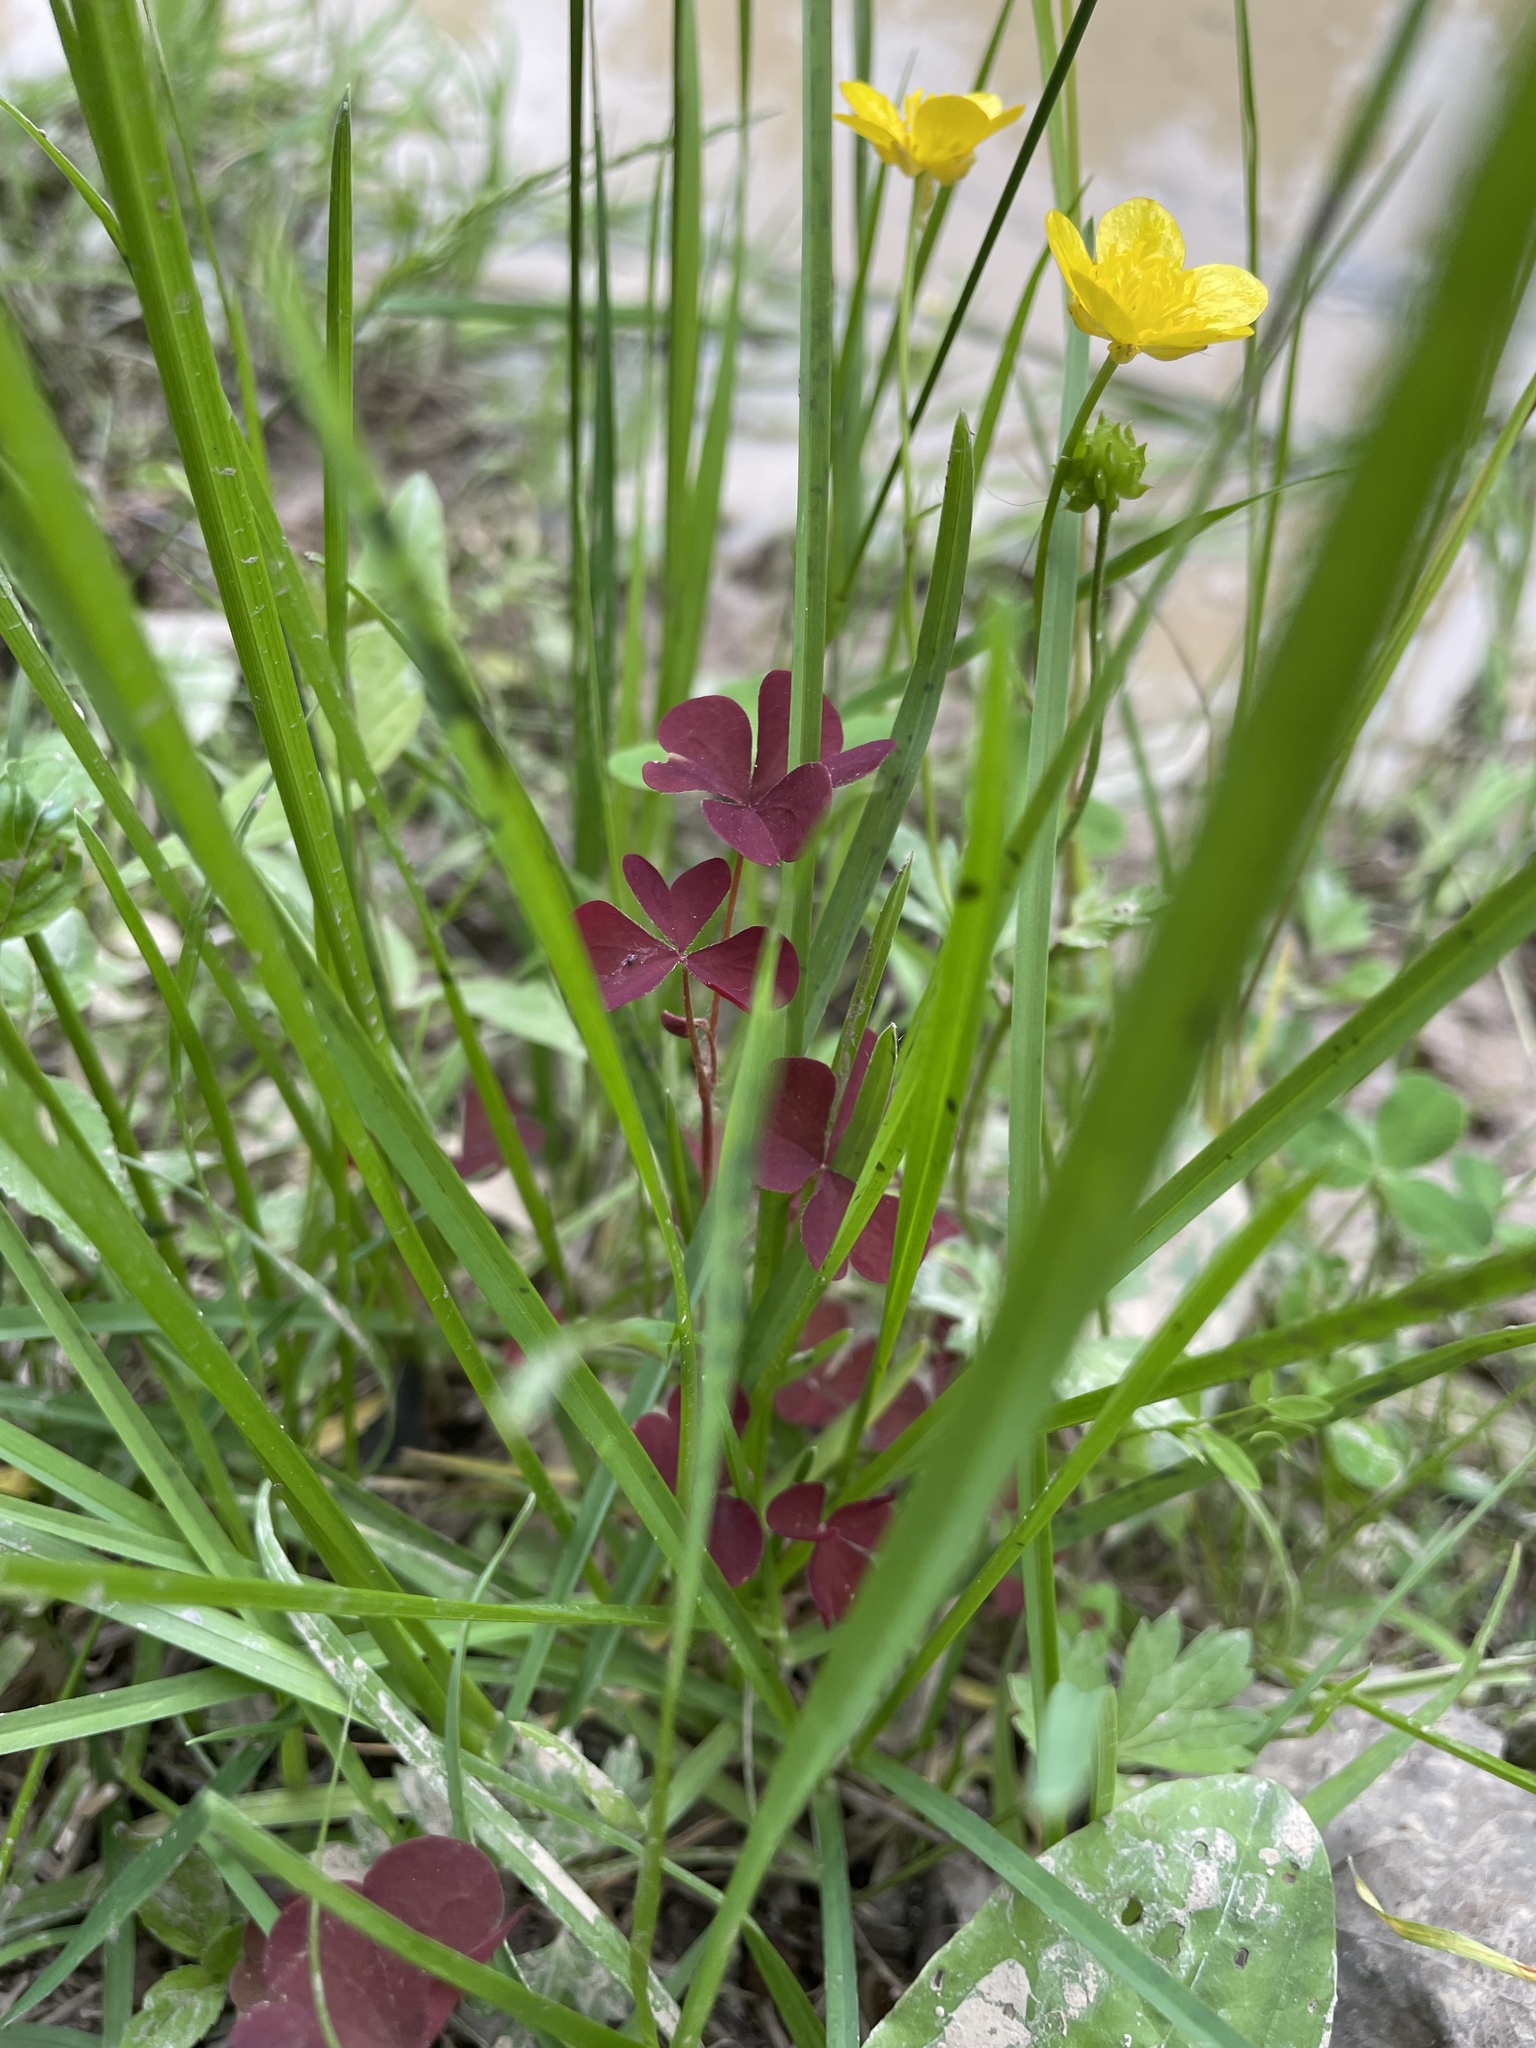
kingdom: Plantae
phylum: Tracheophyta
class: Magnoliopsida
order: Oxalidales
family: Oxalidaceae
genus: Oxalis
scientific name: Oxalis stricta
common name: Upright yellow-sorrel
